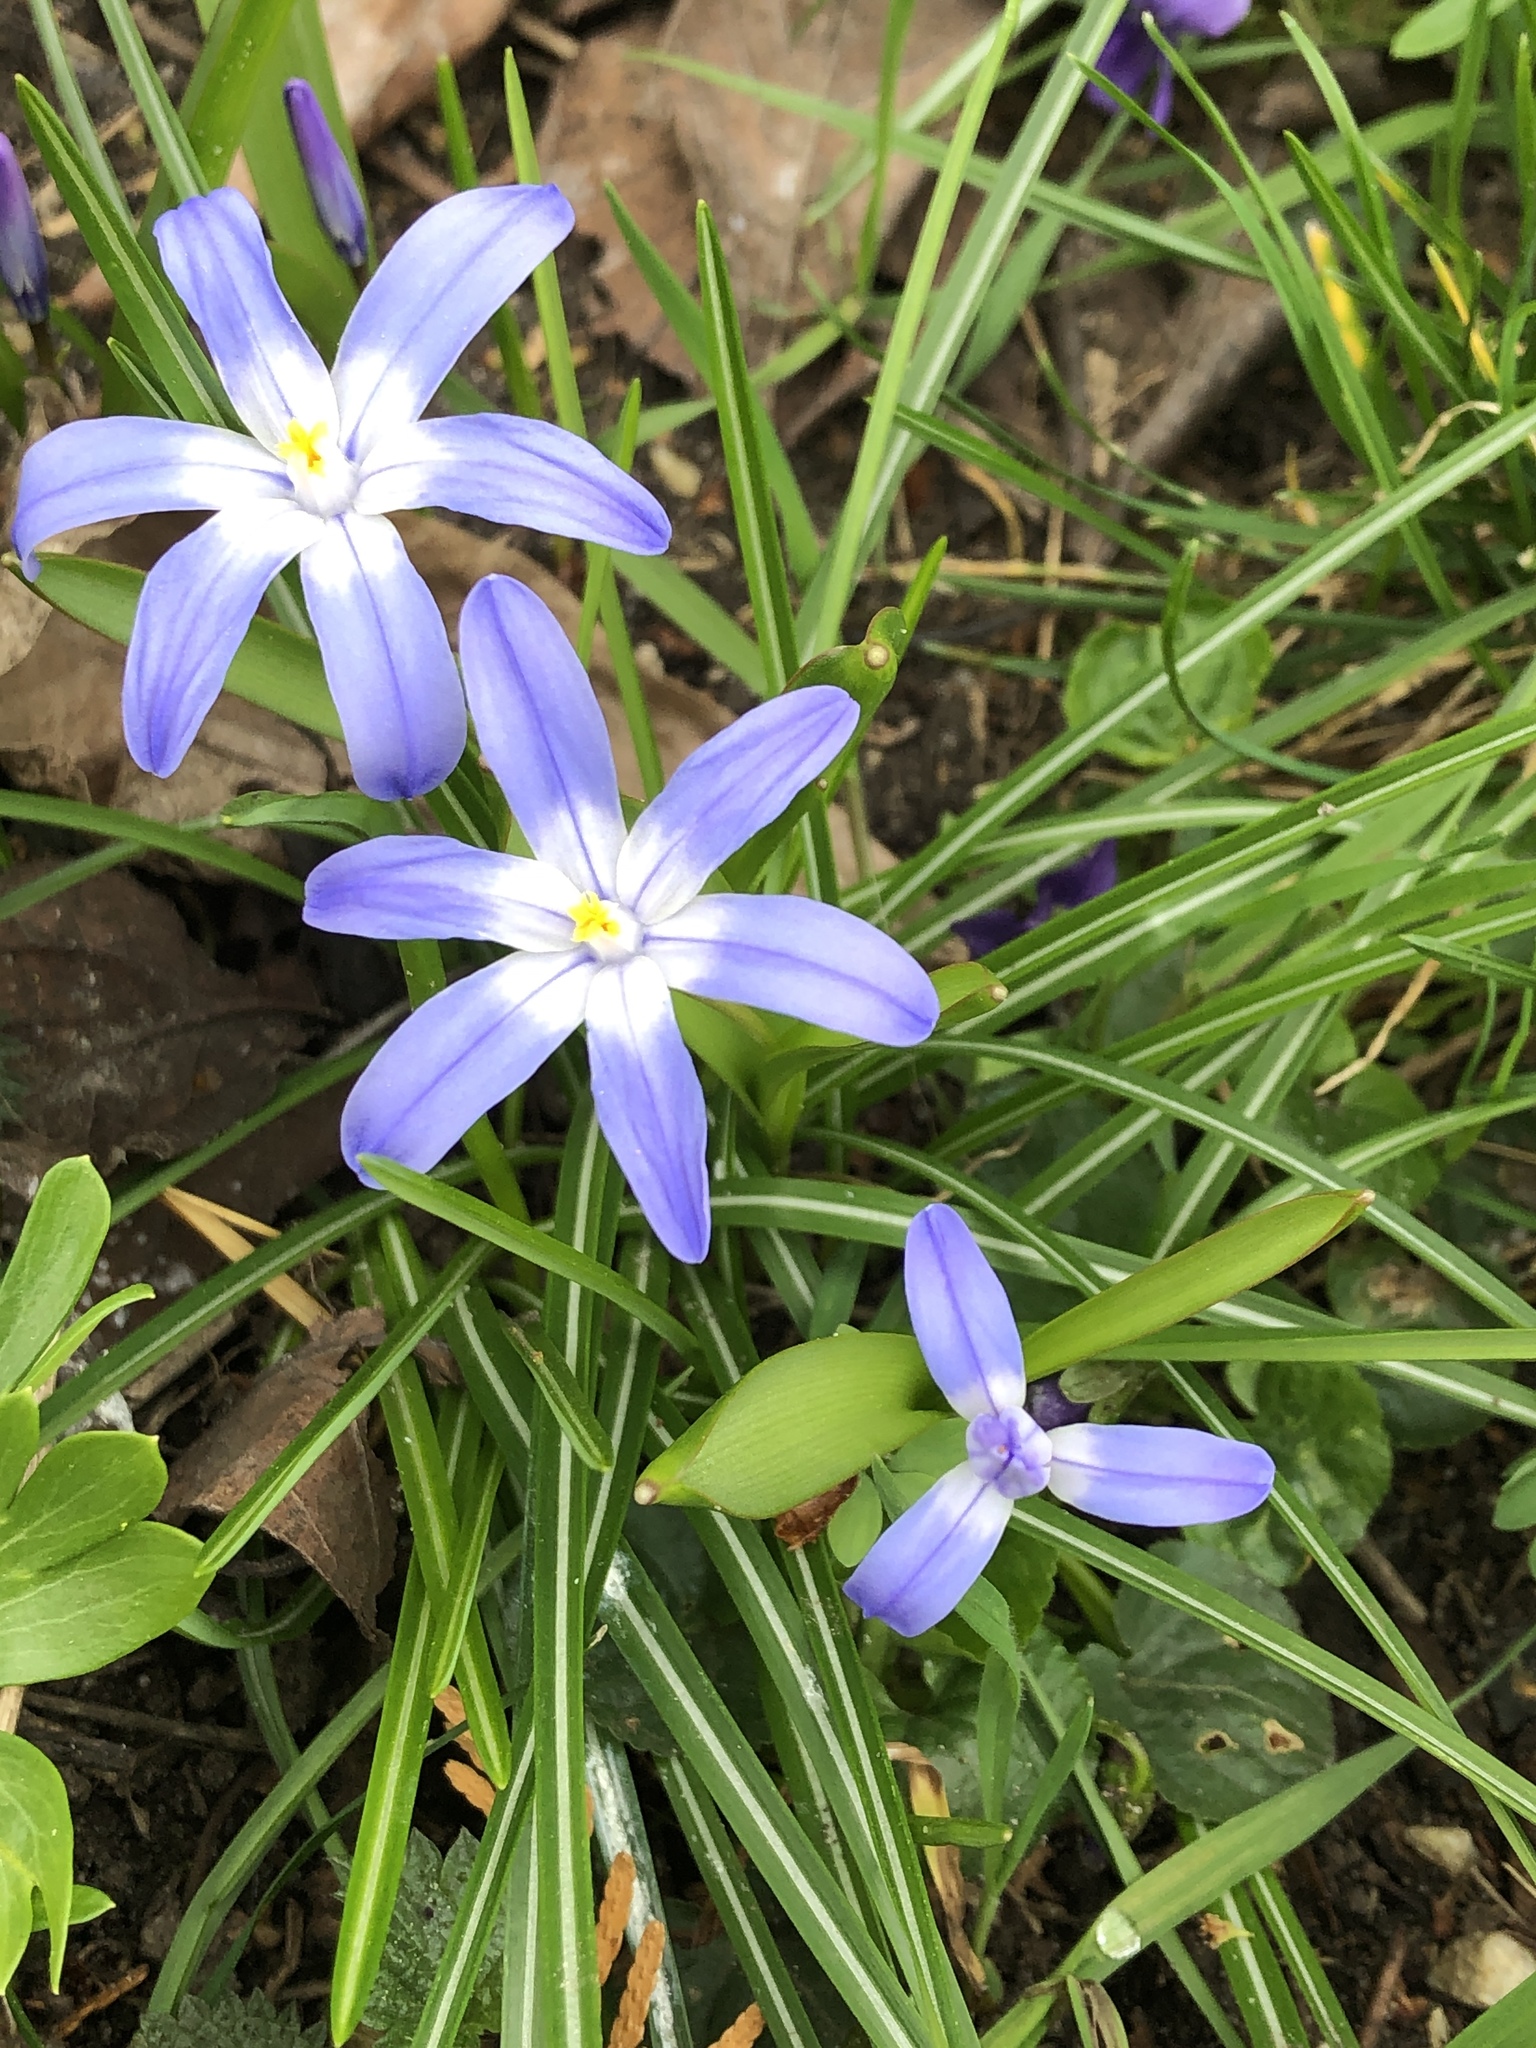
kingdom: Plantae
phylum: Tracheophyta
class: Liliopsida
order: Asparagales
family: Asparagaceae
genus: Scilla
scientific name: Scilla luciliae
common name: Boissier's glory-of-the-snow
